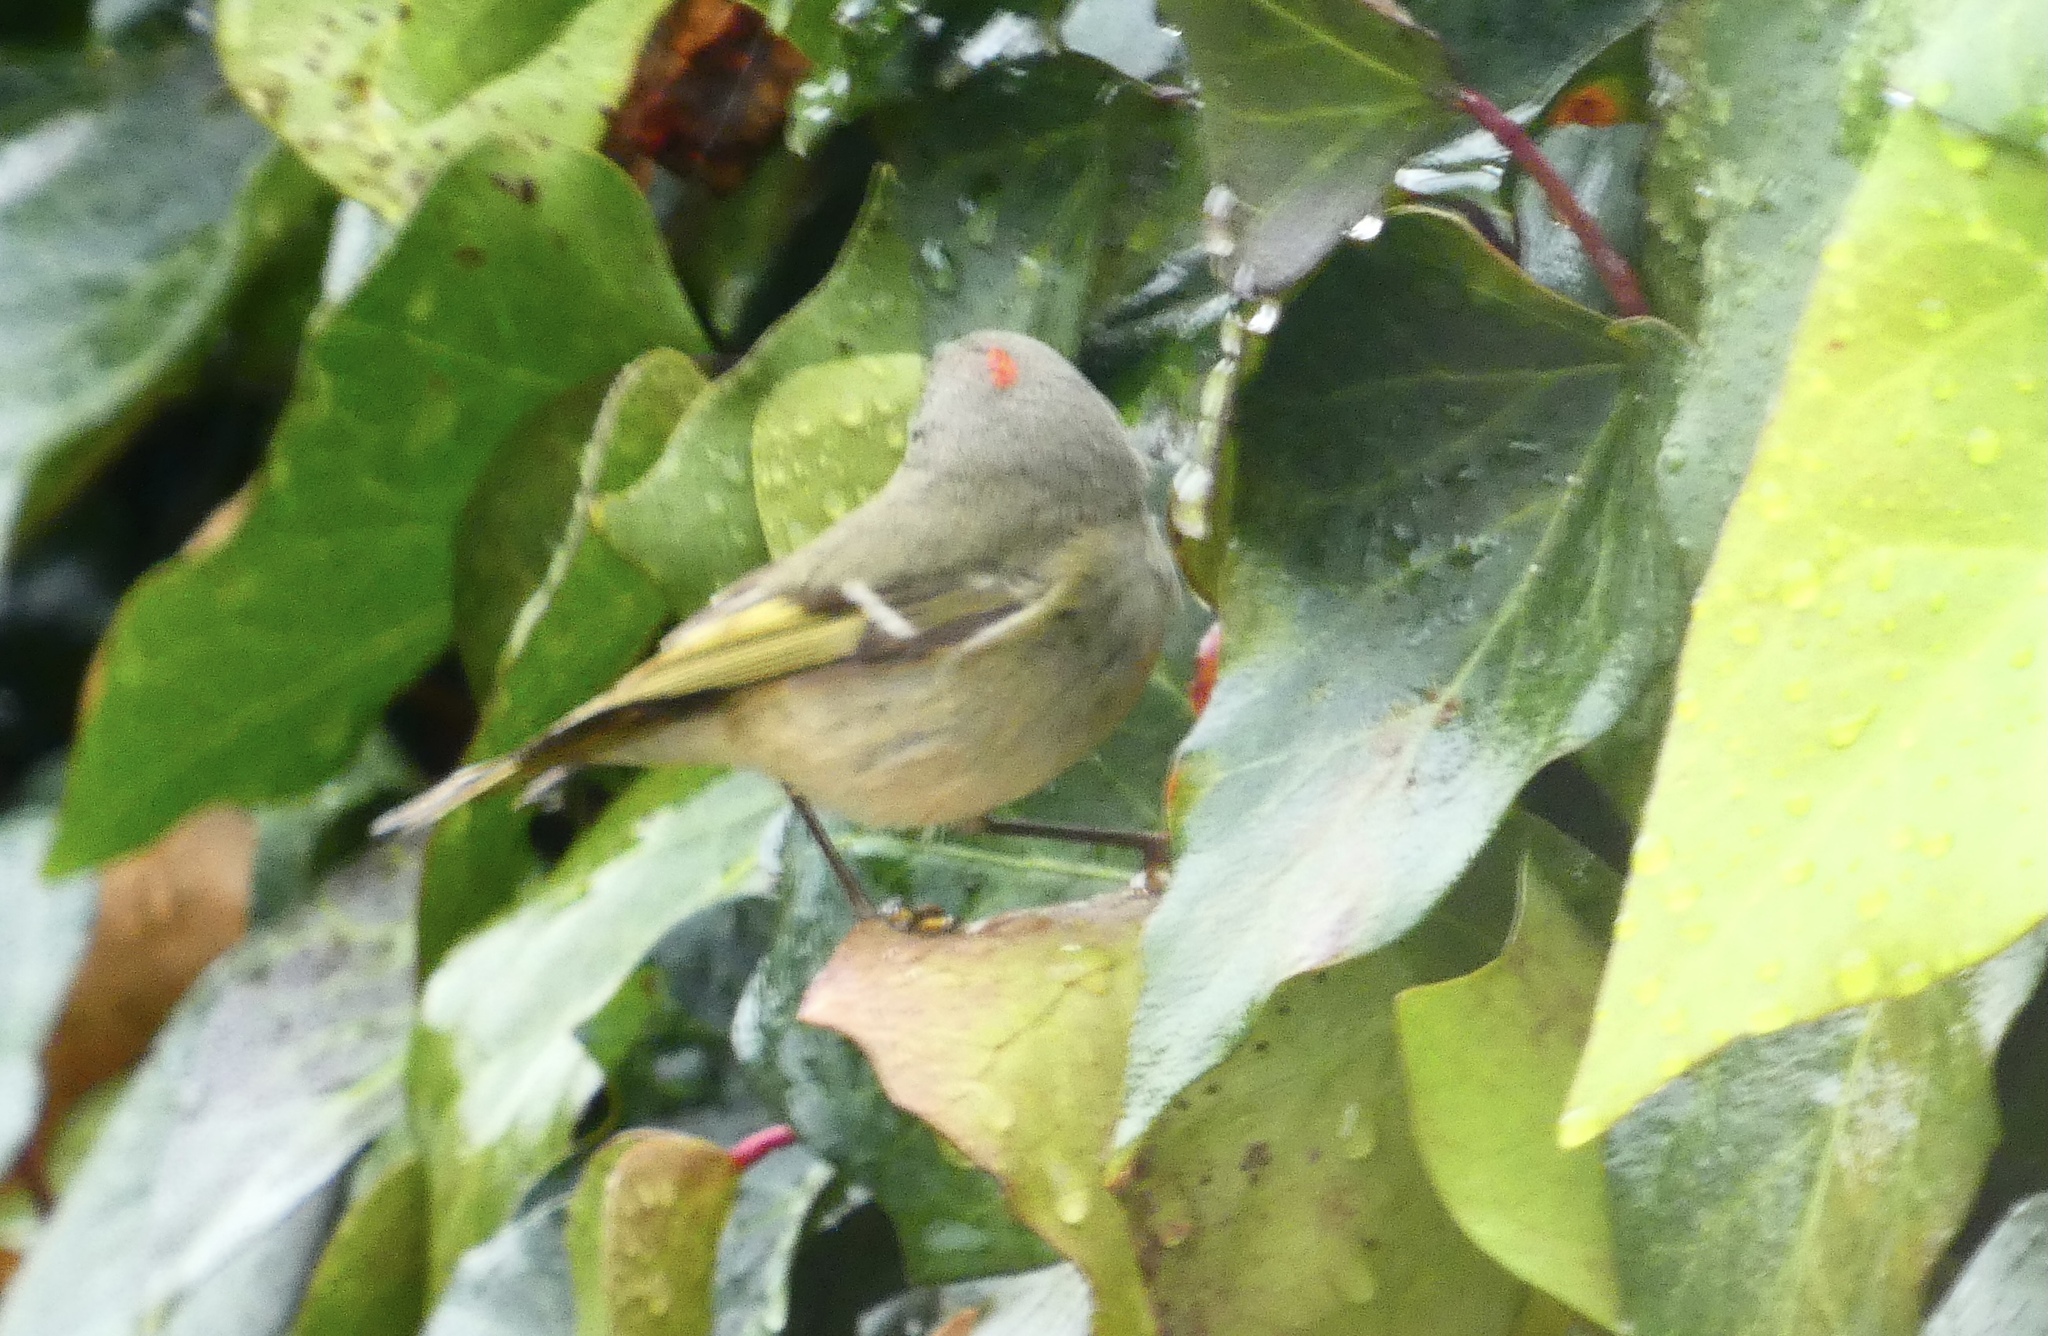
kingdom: Animalia
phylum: Chordata
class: Aves
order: Passeriformes
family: Regulidae
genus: Regulus
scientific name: Regulus calendula
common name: Ruby-crowned kinglet
